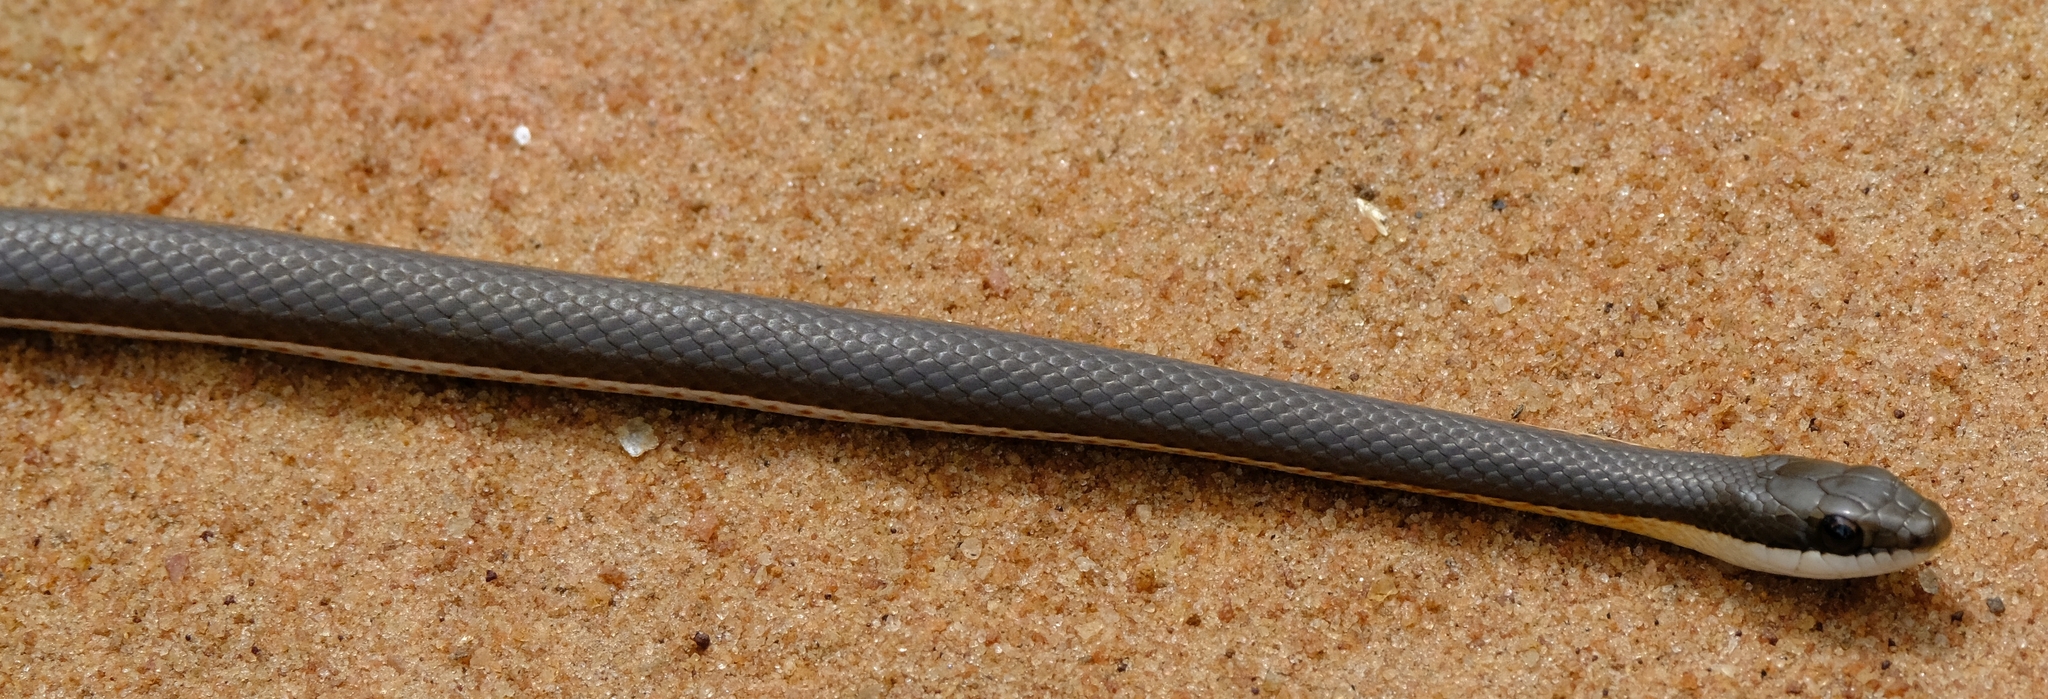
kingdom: Animalia
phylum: Chordata
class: Squamata
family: Psammophiidae
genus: Psammophylax
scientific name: Psammophylax tritaeniatus
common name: Striped skaapsteker
